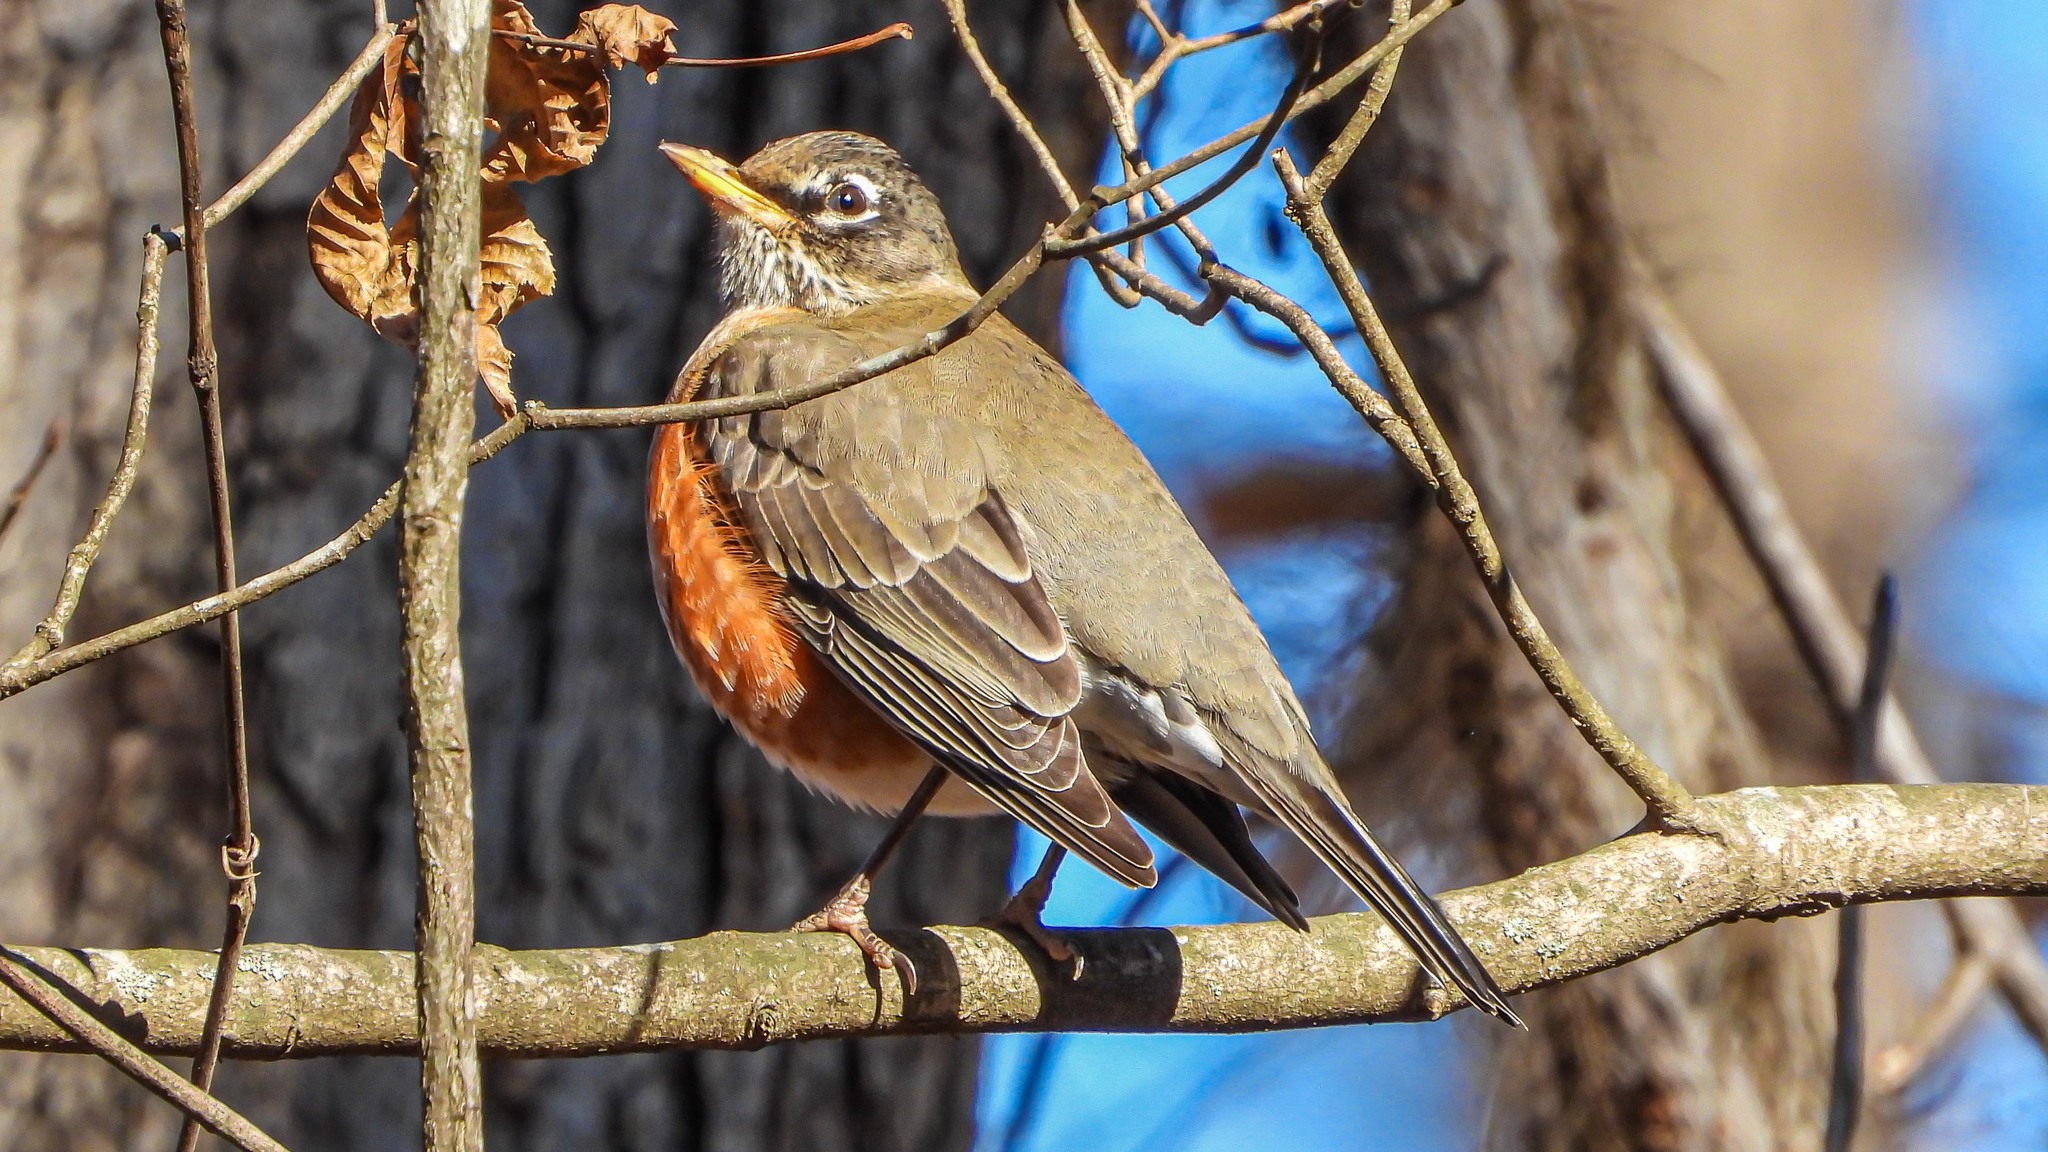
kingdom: Animalia
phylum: Chordata
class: Aves
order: Passeriformes
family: Turdidae
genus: Turdus
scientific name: Turdus migratorius
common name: American robin
